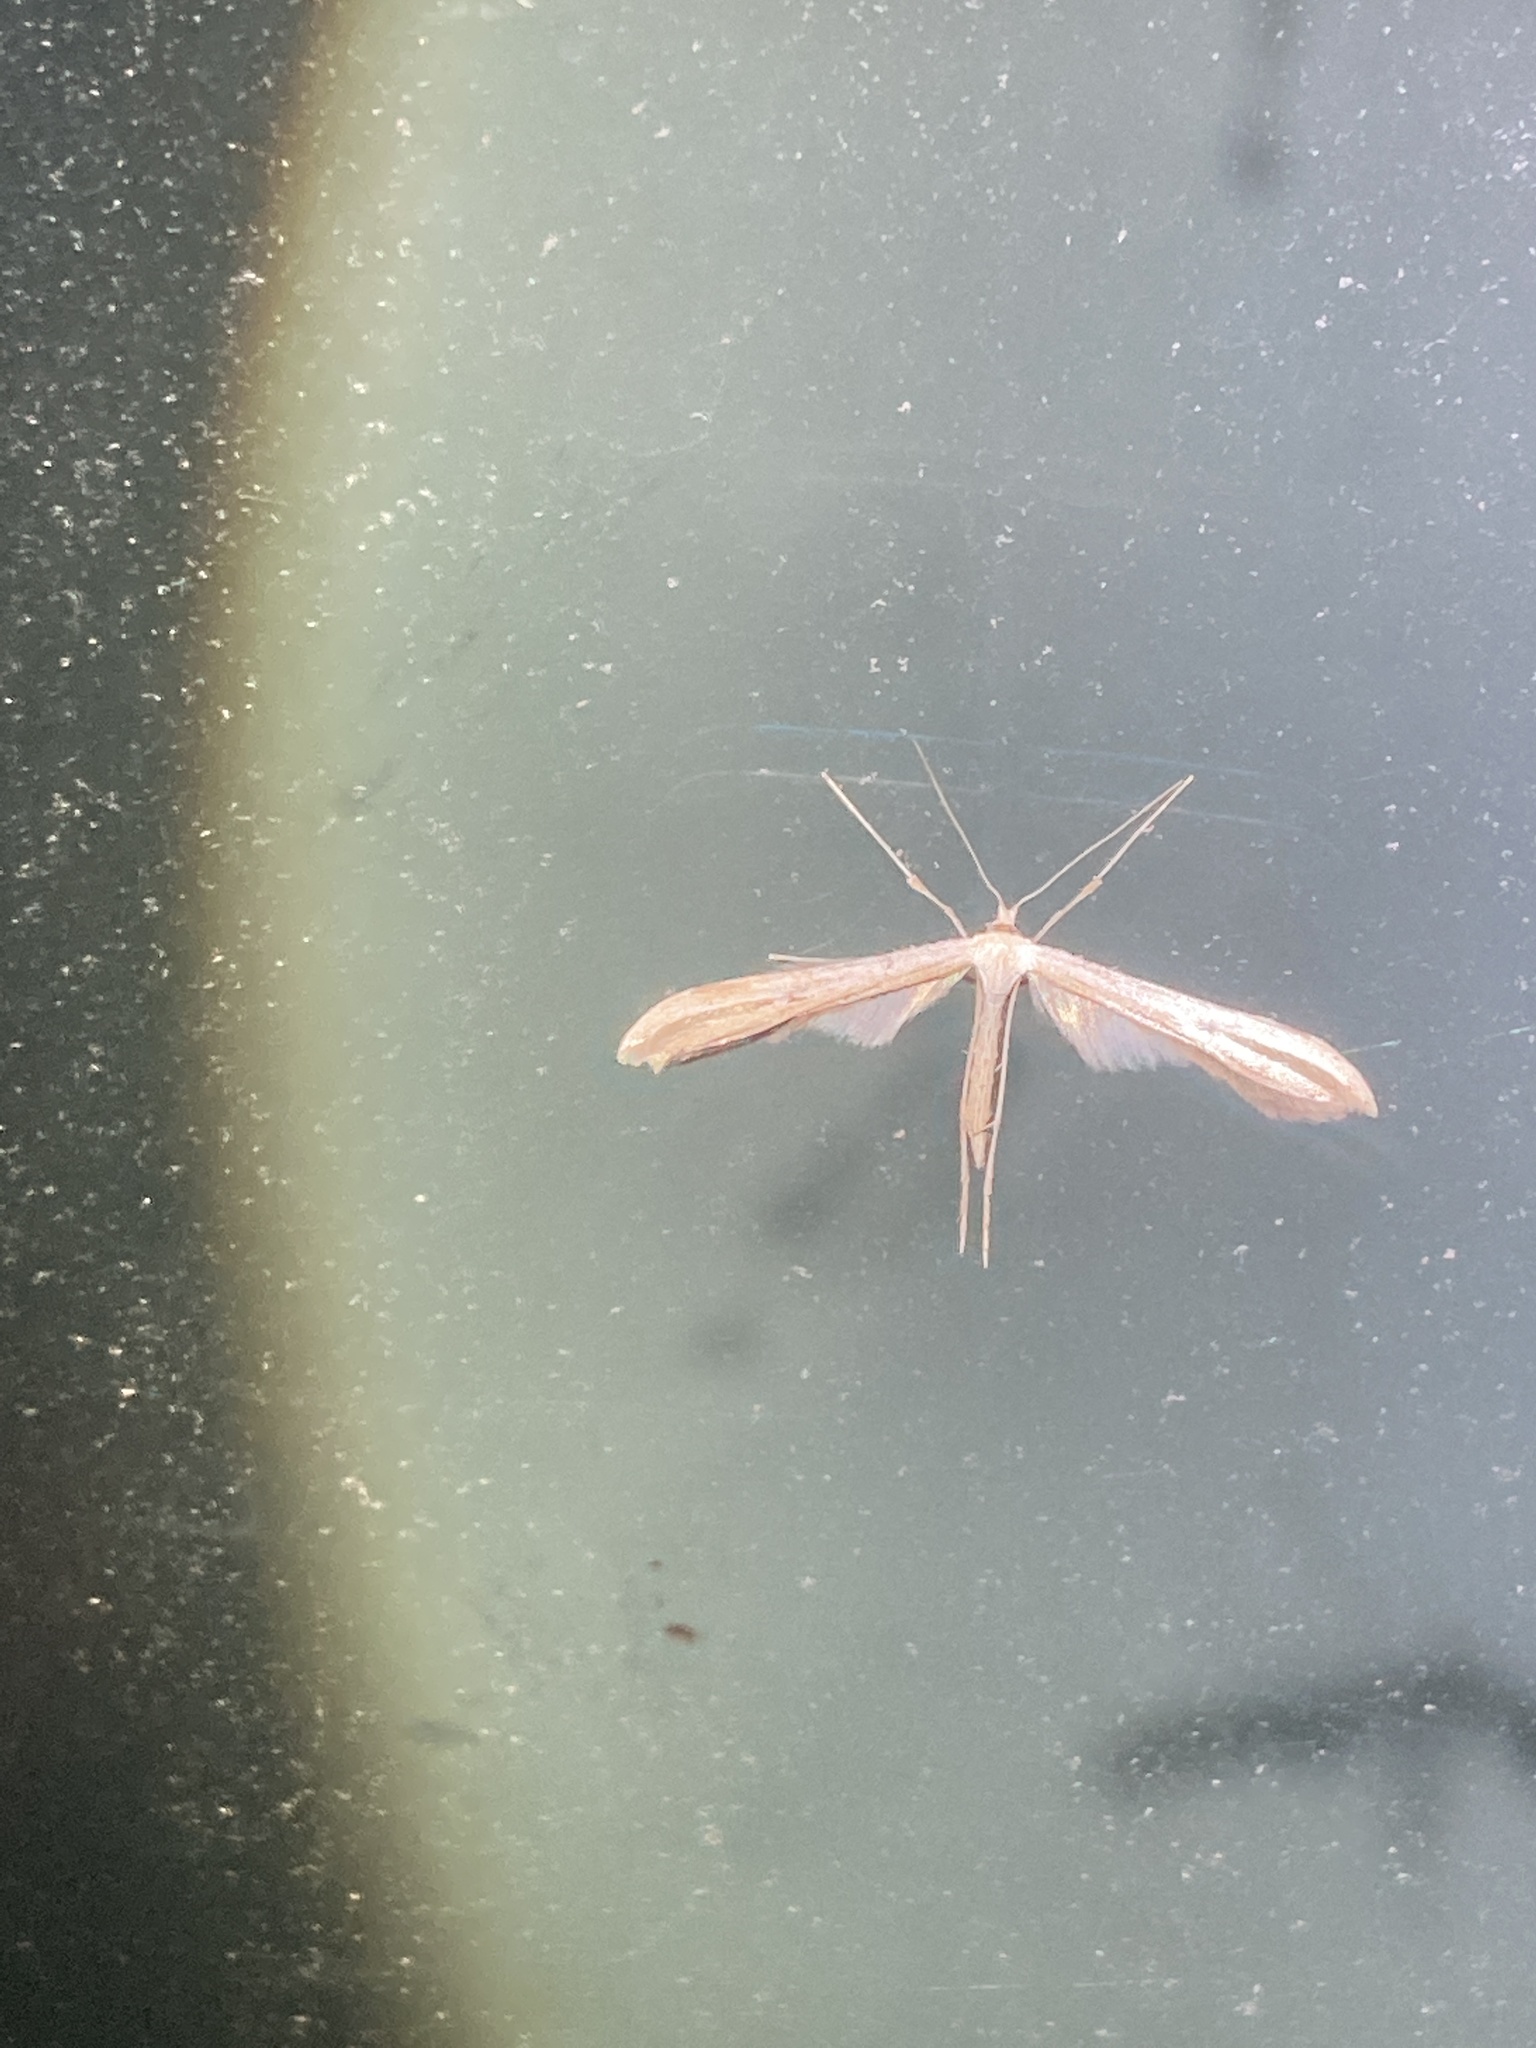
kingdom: Animalia
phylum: Arthropoda
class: Insecta
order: Lepidoptera
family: Pterophoridae
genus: Emmelina
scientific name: Emmelina monodactyla
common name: Common plume
